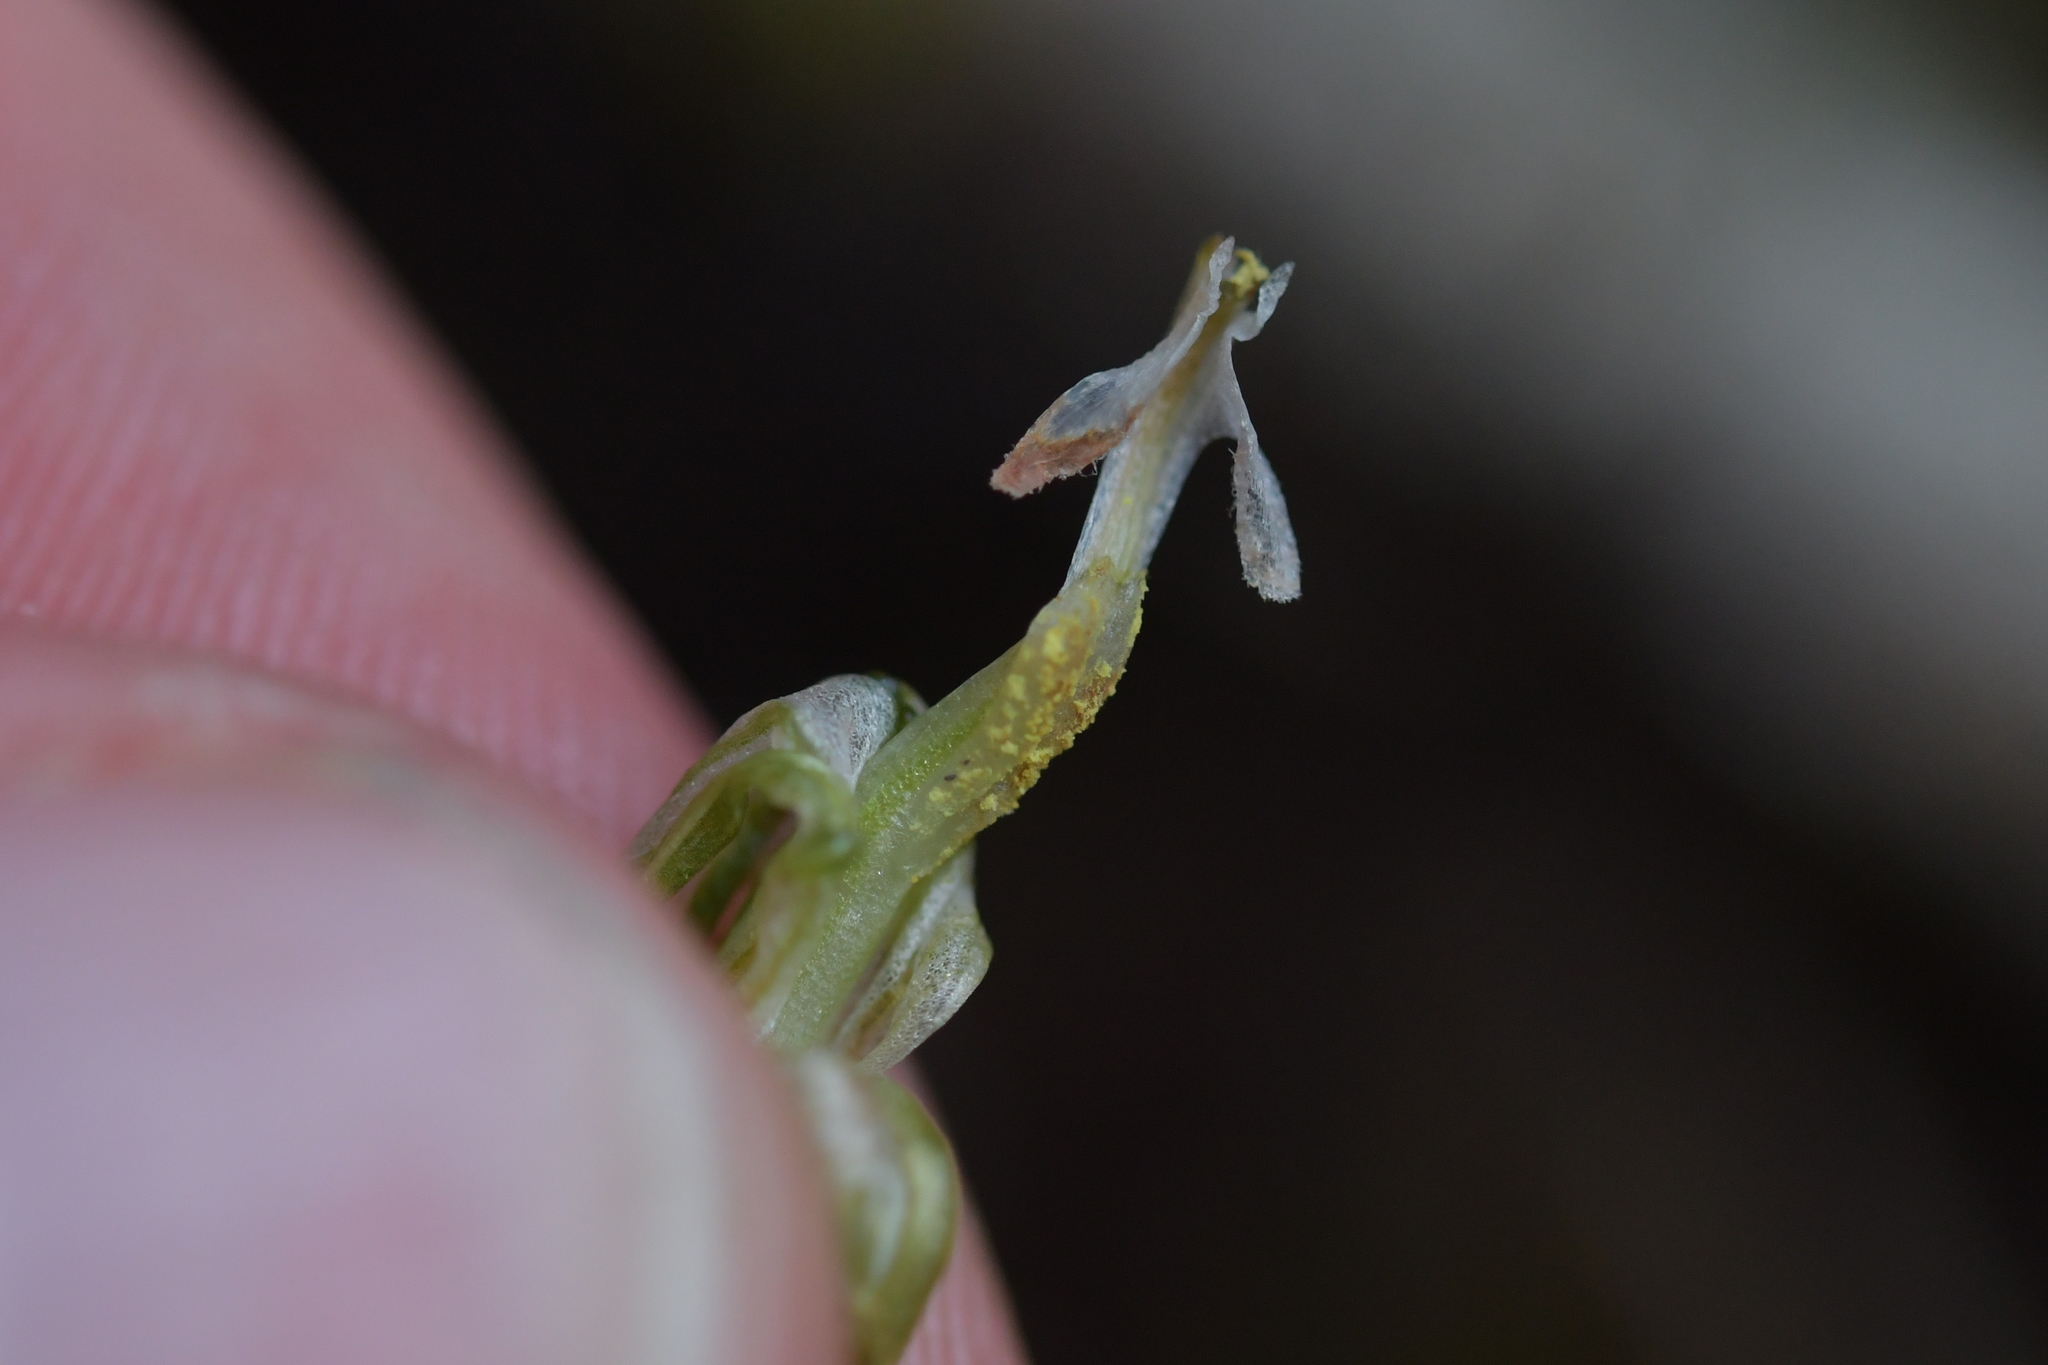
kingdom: Plantae
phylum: Tracheophyta
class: Liliopsida
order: Asparagales
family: Orchidaceae
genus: Pterostylis
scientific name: Pterostylis graminea
